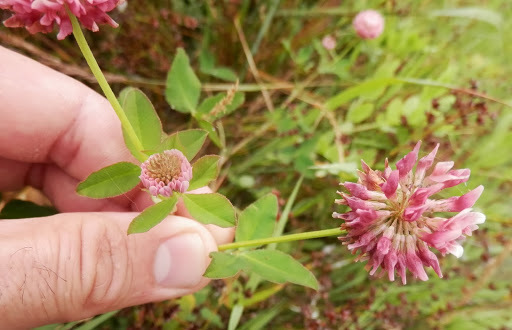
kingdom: Plantae
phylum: Tracheophyta
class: Magnoliopsida
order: Fabales
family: Fabaceae
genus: Trifolium
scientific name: Trifolium hybridum
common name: Alsike clover
